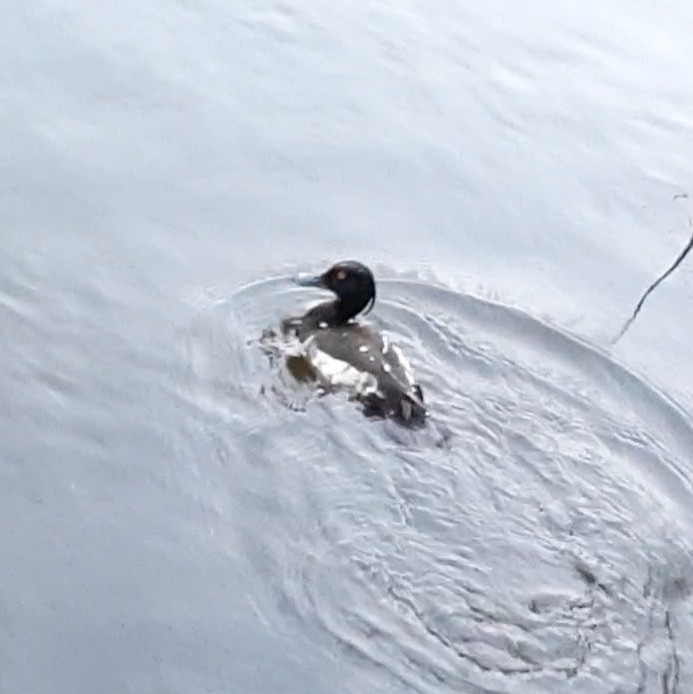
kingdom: Animalia
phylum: Chordata
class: Aves
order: Anseriformes
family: Anatidae
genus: Aythya
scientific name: Aythya fuligula
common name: Tufted duck
